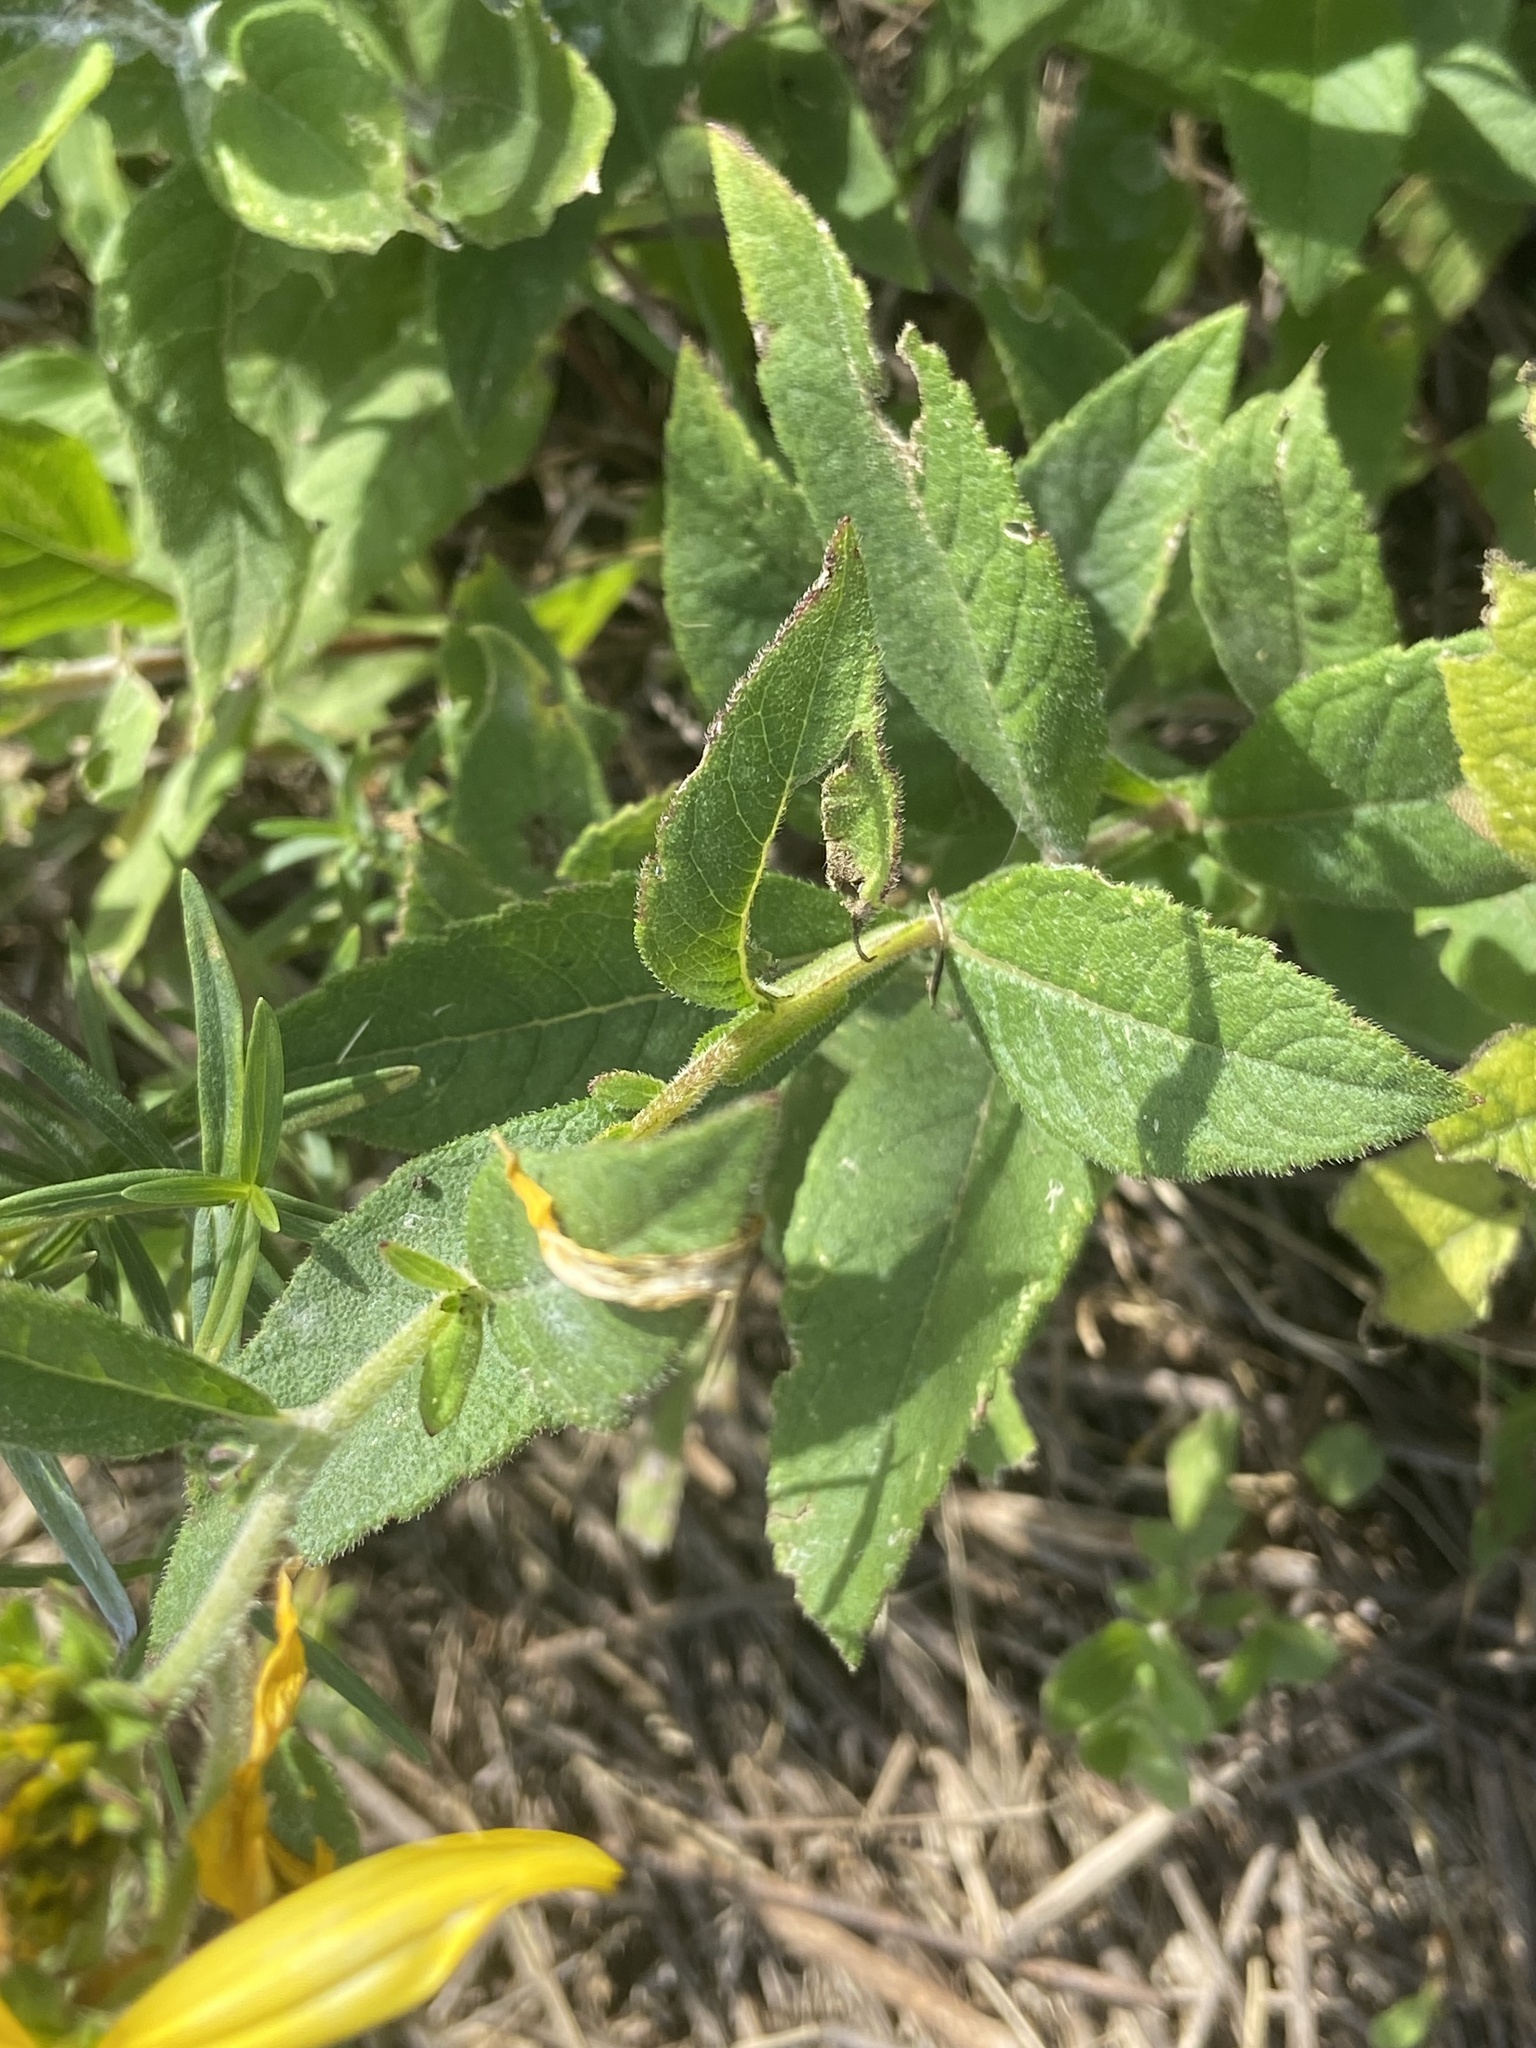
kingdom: Plantae
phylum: Tracheophyta
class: Magnoliopsida
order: Asterales
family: Asteraceae
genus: Verbesina
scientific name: Verbesina helianthoides
